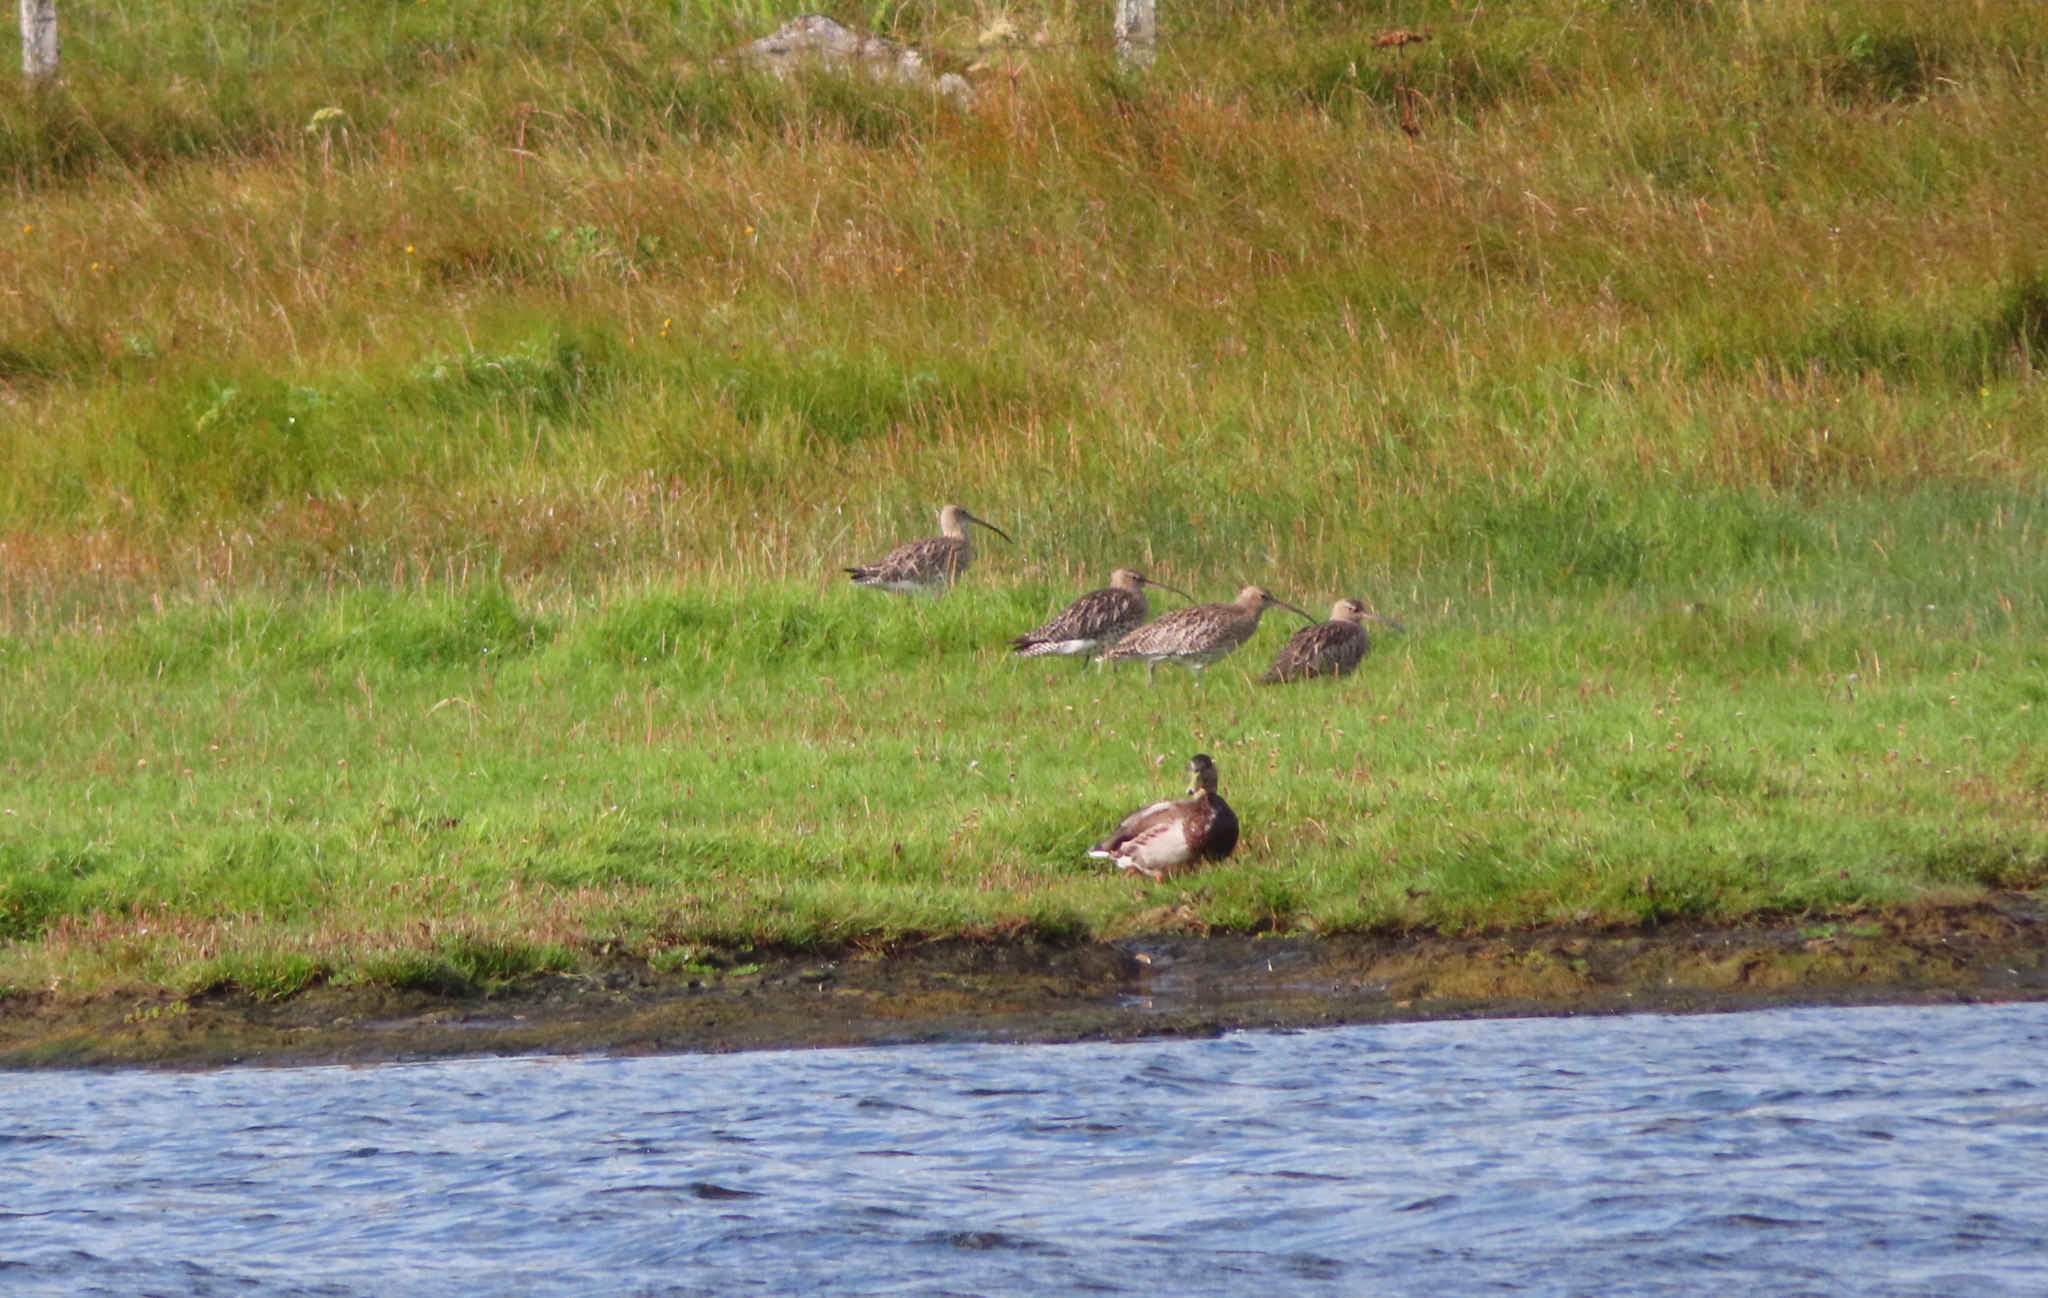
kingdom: Animalia
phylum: Chordata
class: Aves
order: Charadriiformes
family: Scolopacidae
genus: Numenius
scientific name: Numenius arquata
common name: Eurasian curlew
